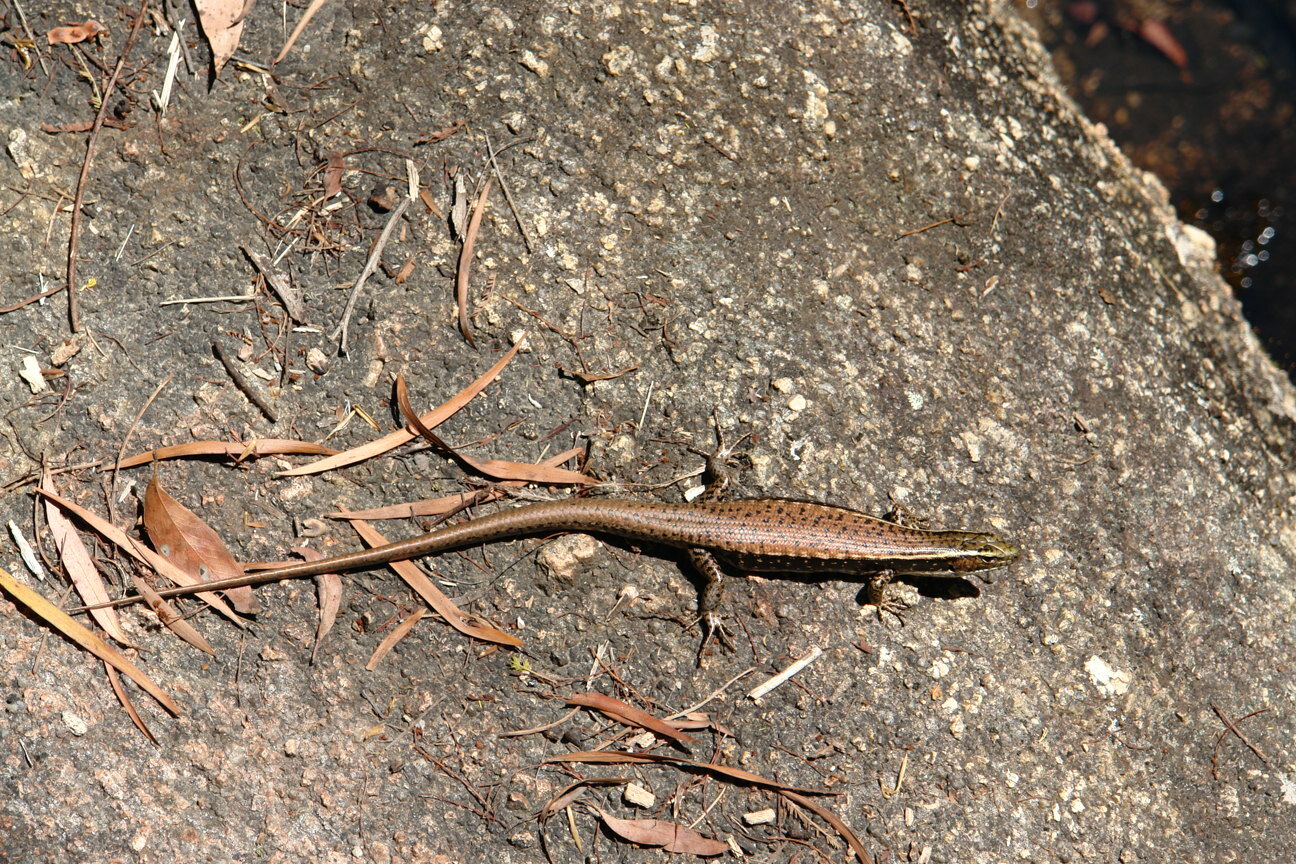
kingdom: Animalia
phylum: Chordata
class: Squamata
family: Scincidae
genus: Eulamprus
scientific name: Eulamprus quoyii
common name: Eastern water skink
